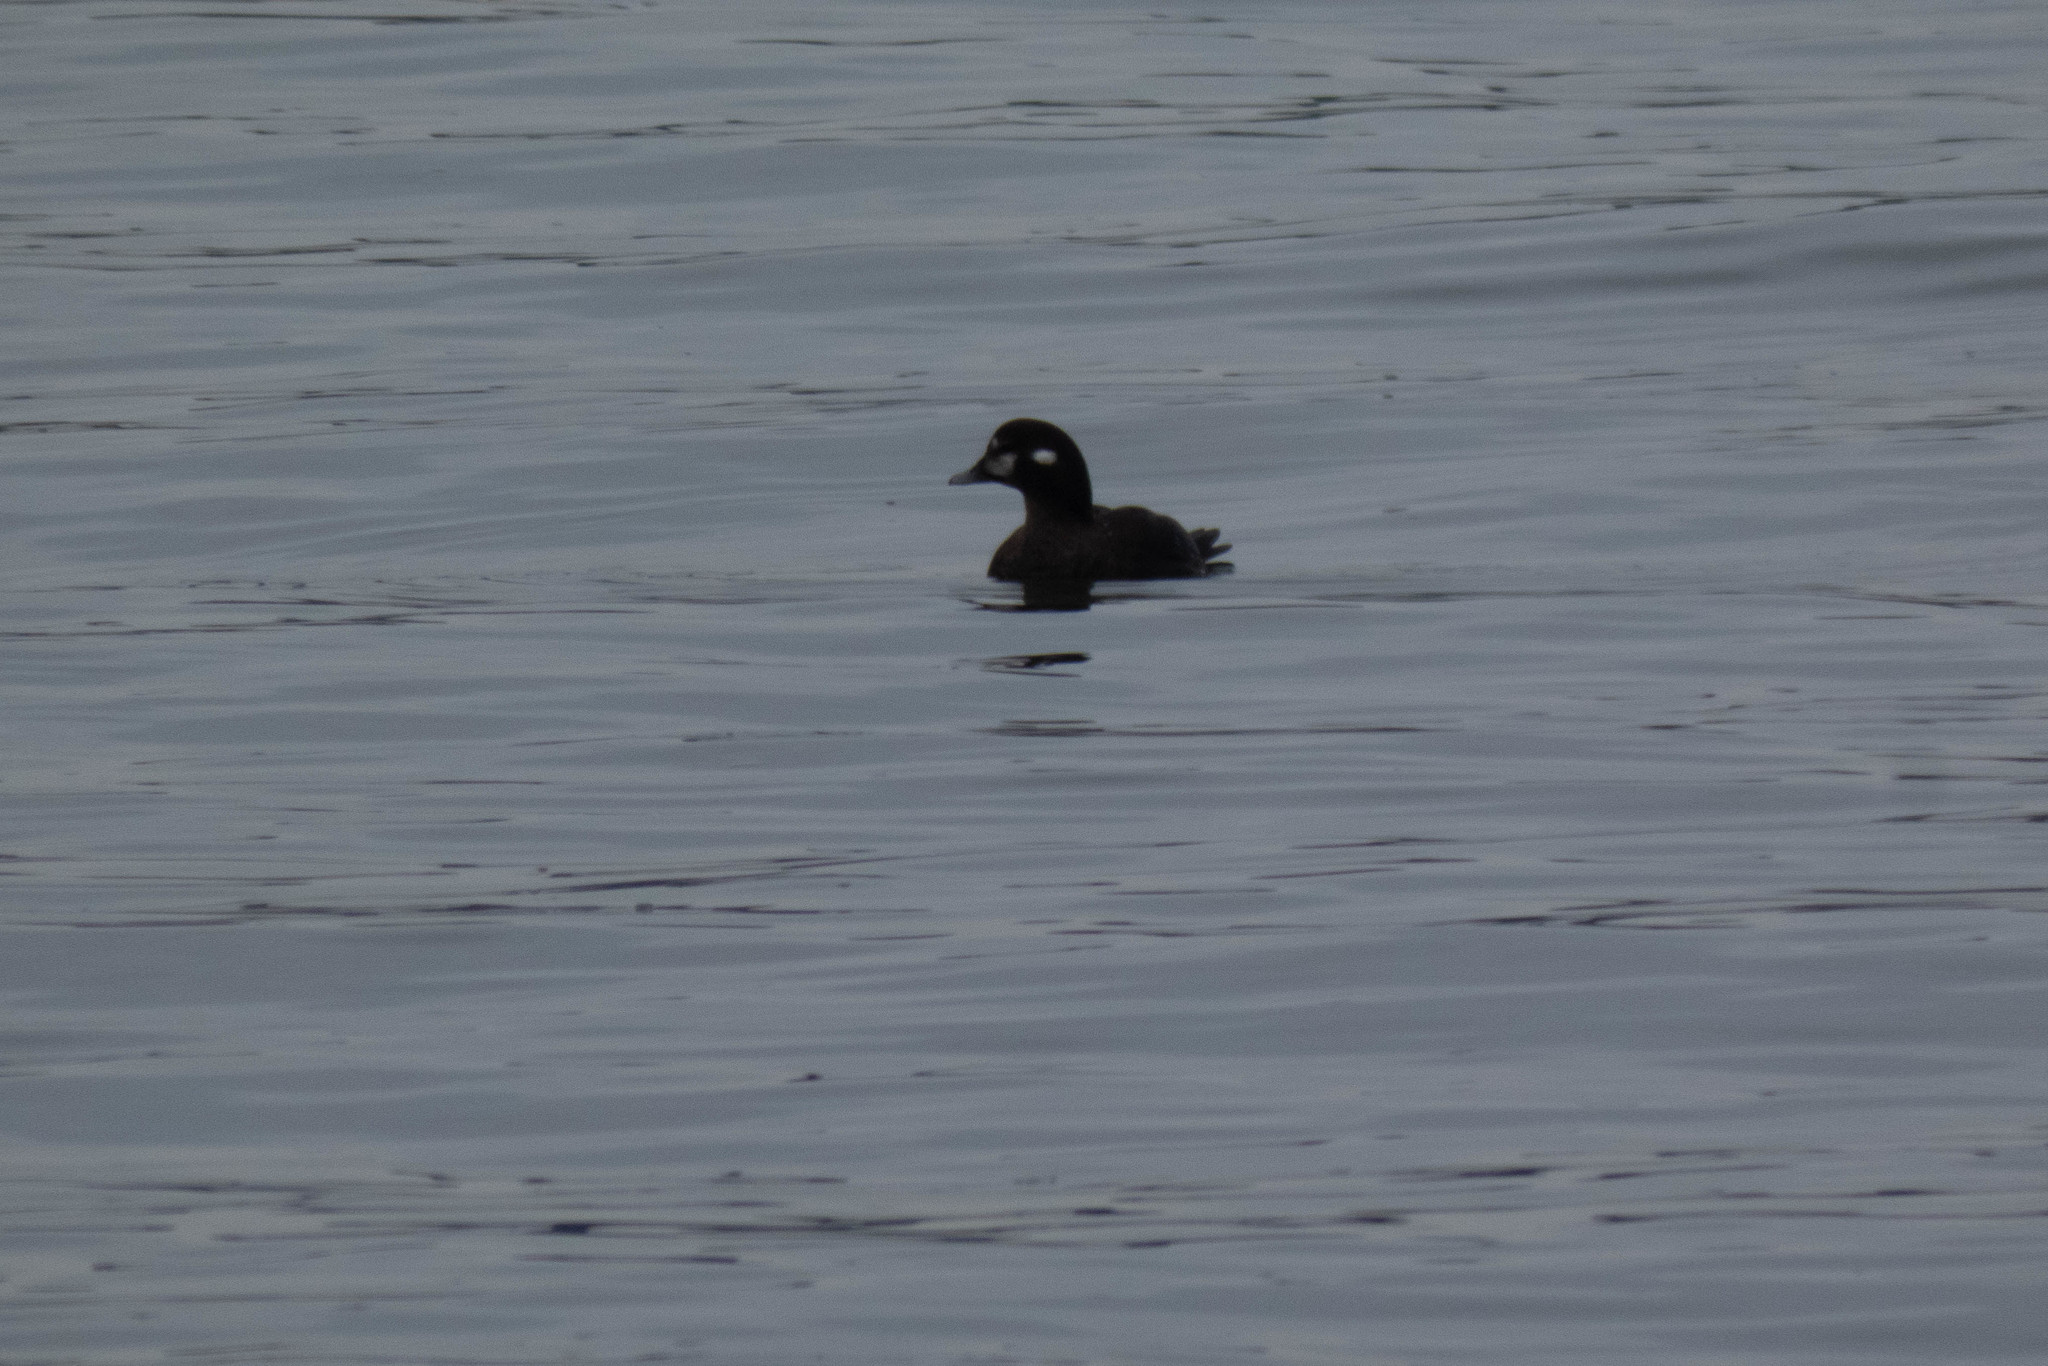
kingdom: Animalia
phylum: Chordata
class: Aves
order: Anseriformes
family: Anatidae
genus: Histrionicus
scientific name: Histrionicus histrionicus
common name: Harlequin duck
